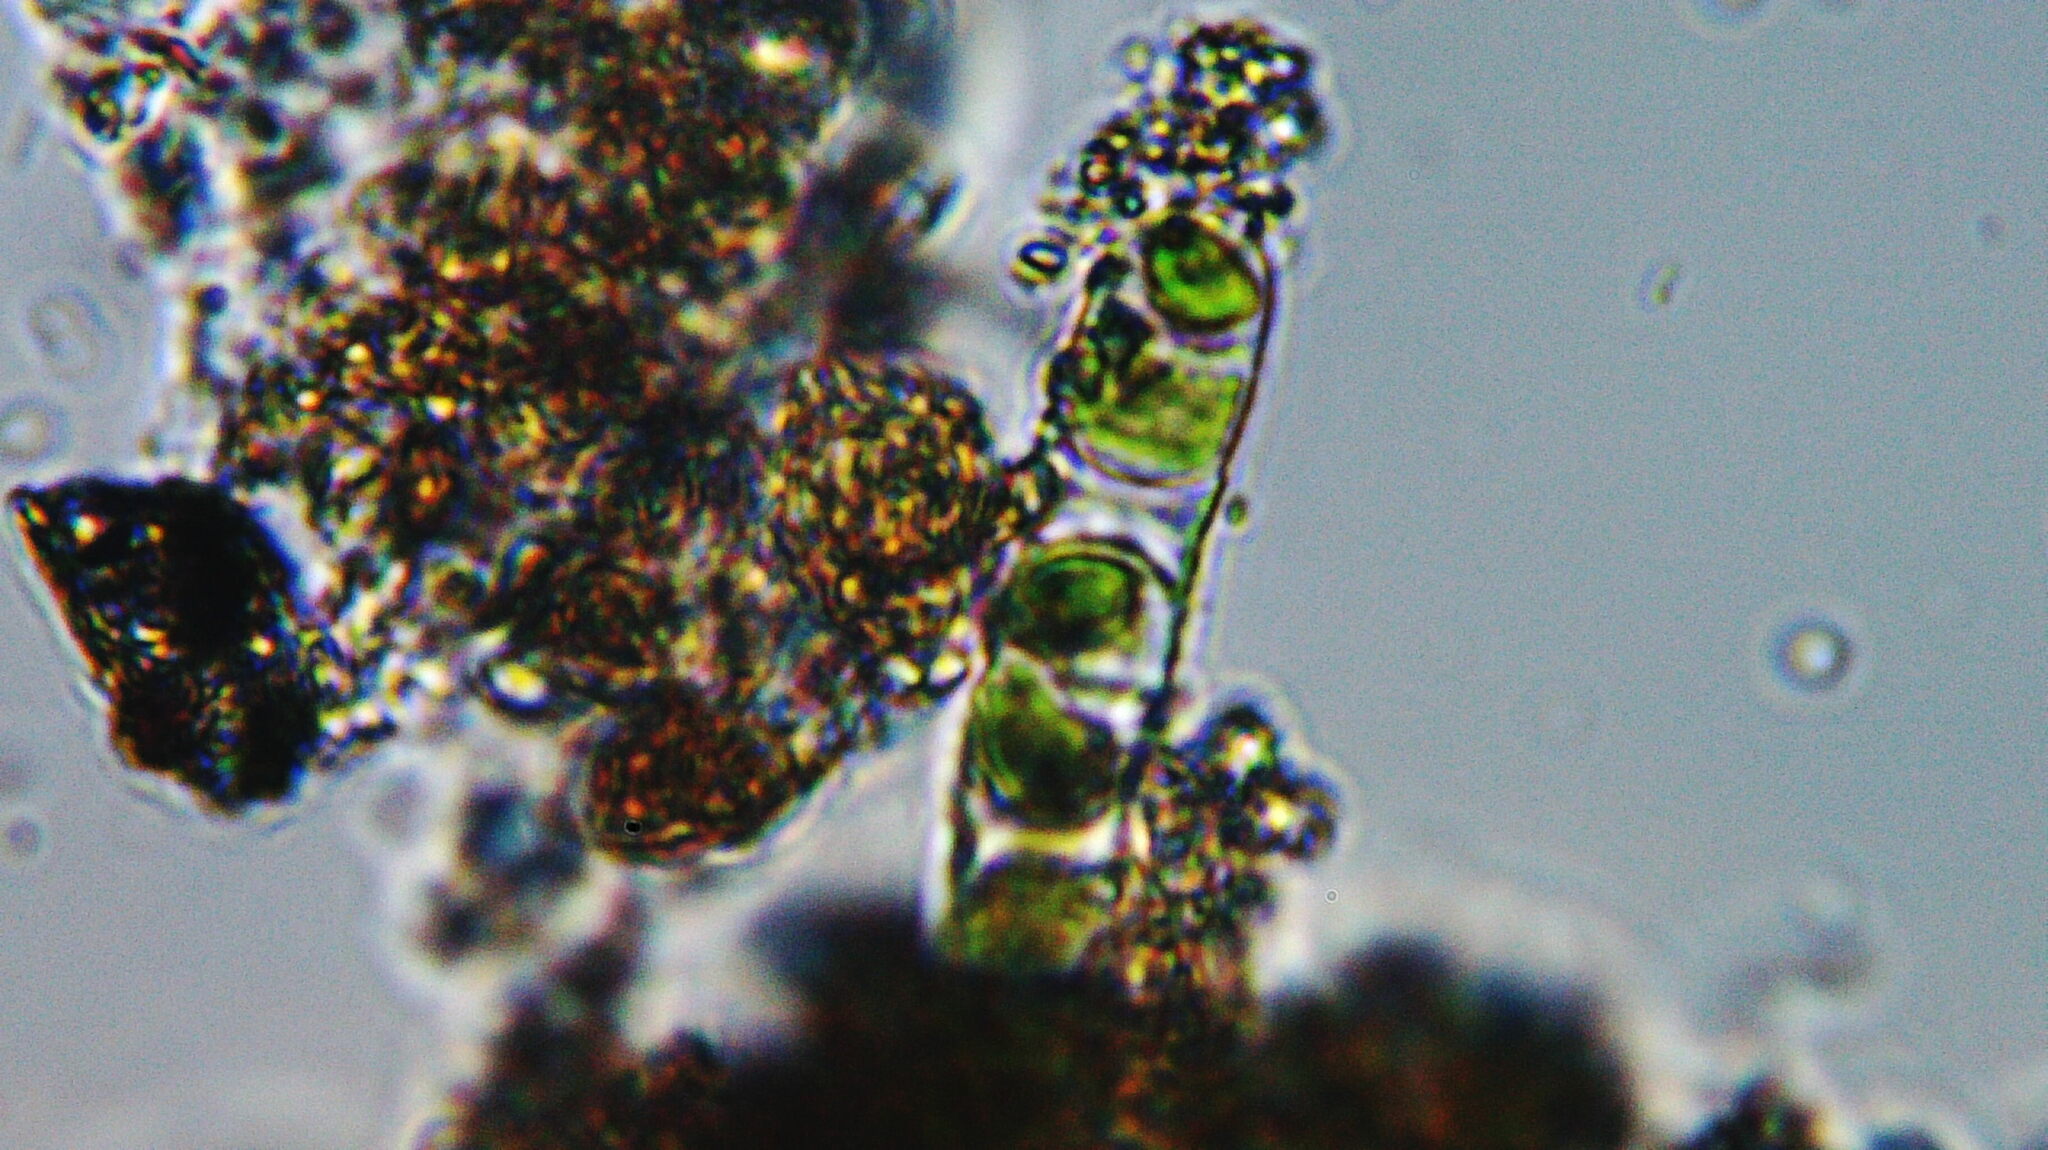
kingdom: Plantae
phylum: Charophyta
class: Klebsormidiophyceae
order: Klebsormidiales
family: Klebsormidiaceae
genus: Klebsormidium
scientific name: Klebsormidium
